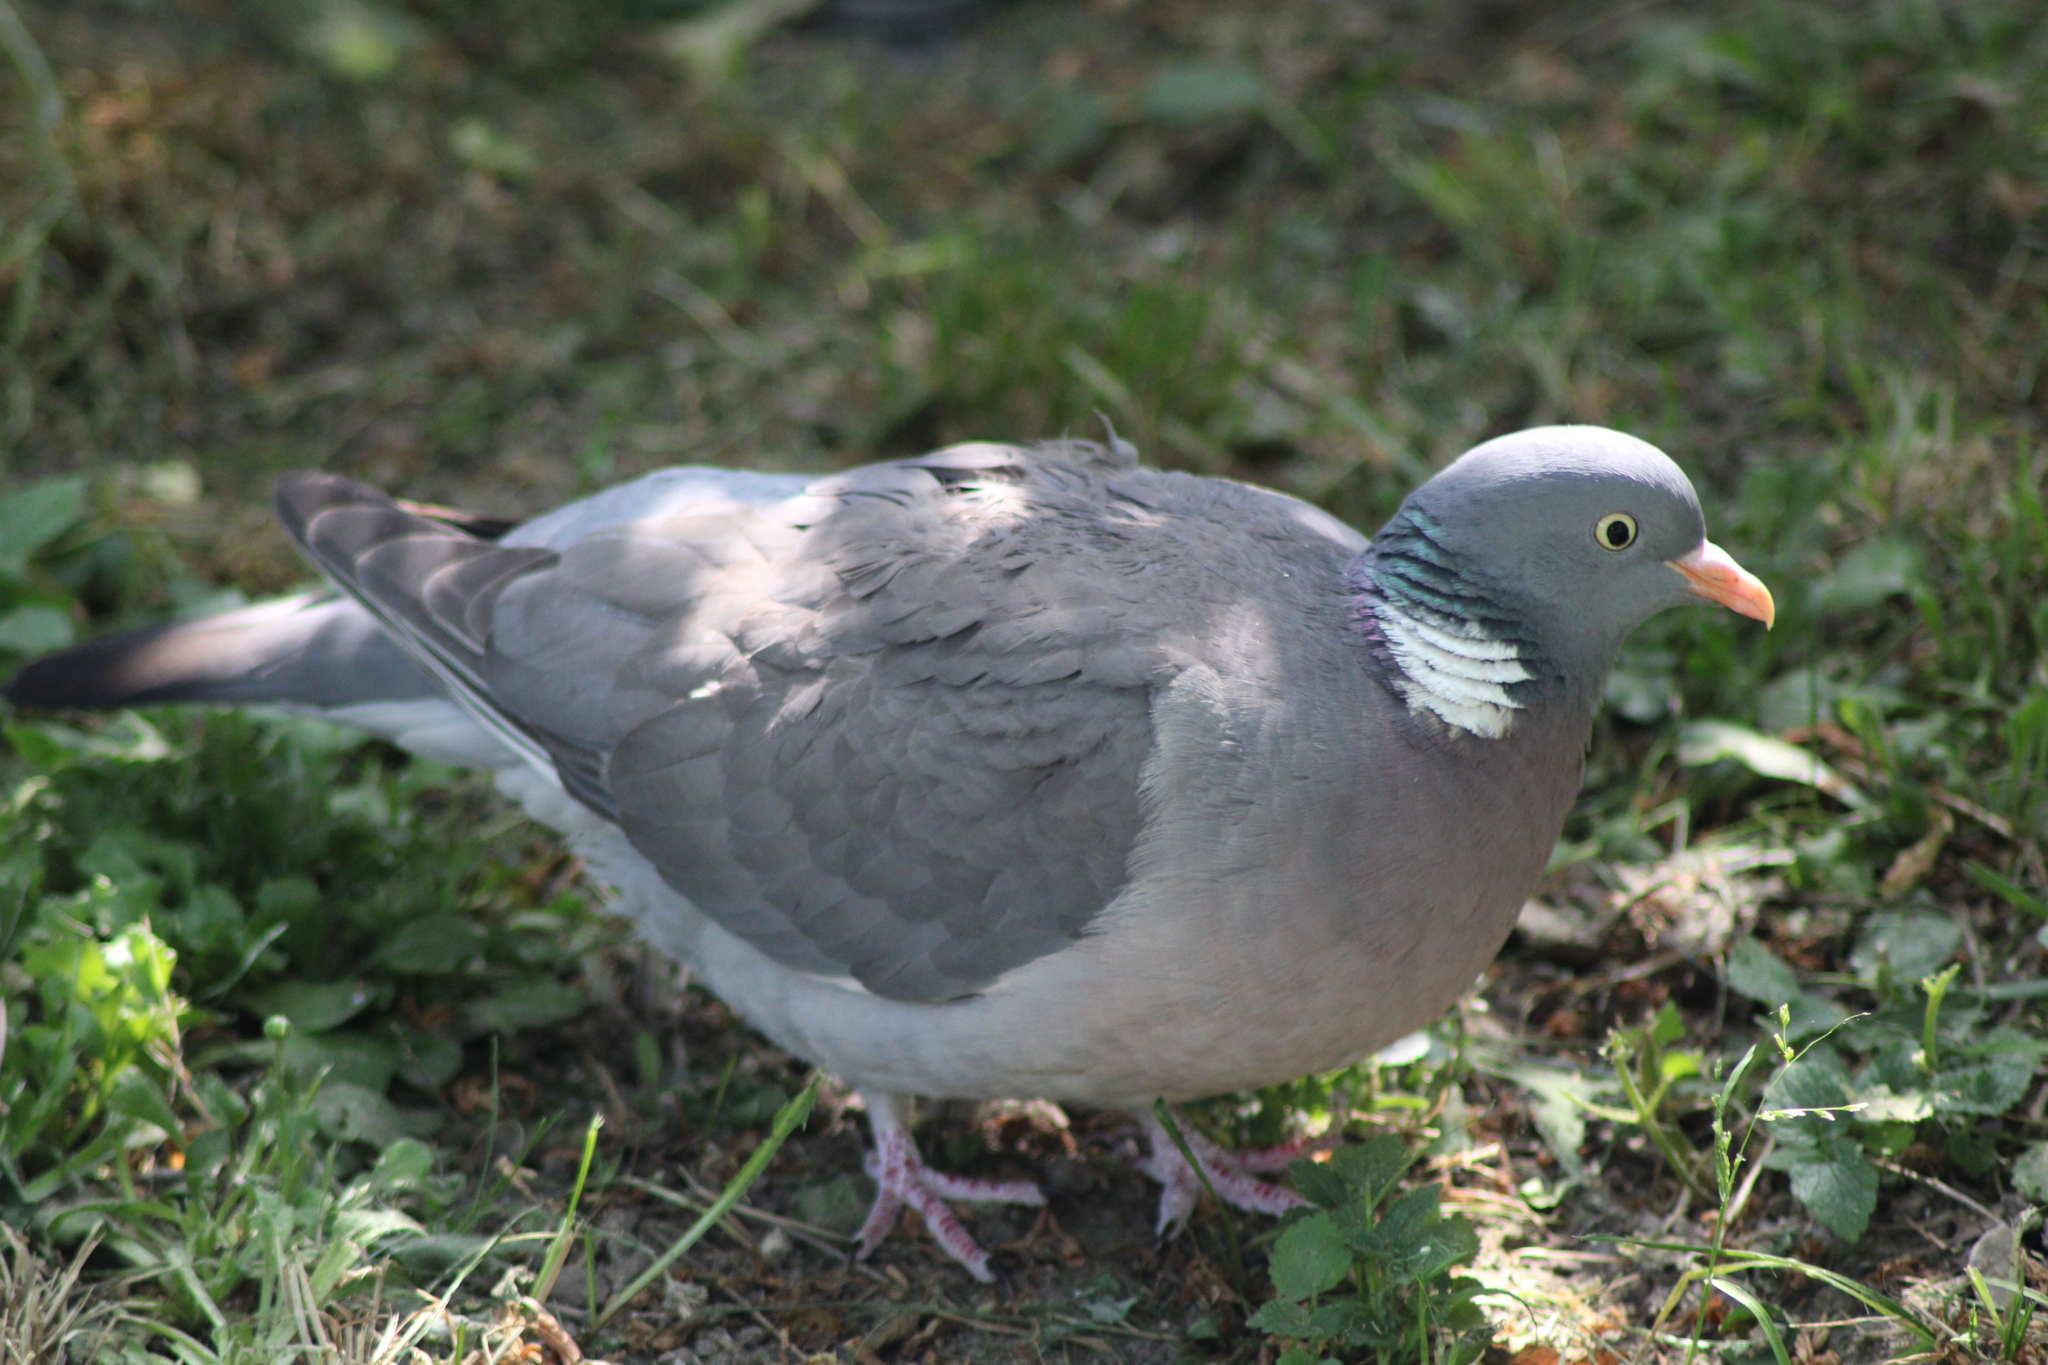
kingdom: Animalia
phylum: Chordata
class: Aves
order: Columbiformes
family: Columbidae
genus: Columba
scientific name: Columba palumbus
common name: Common wood pigeon
